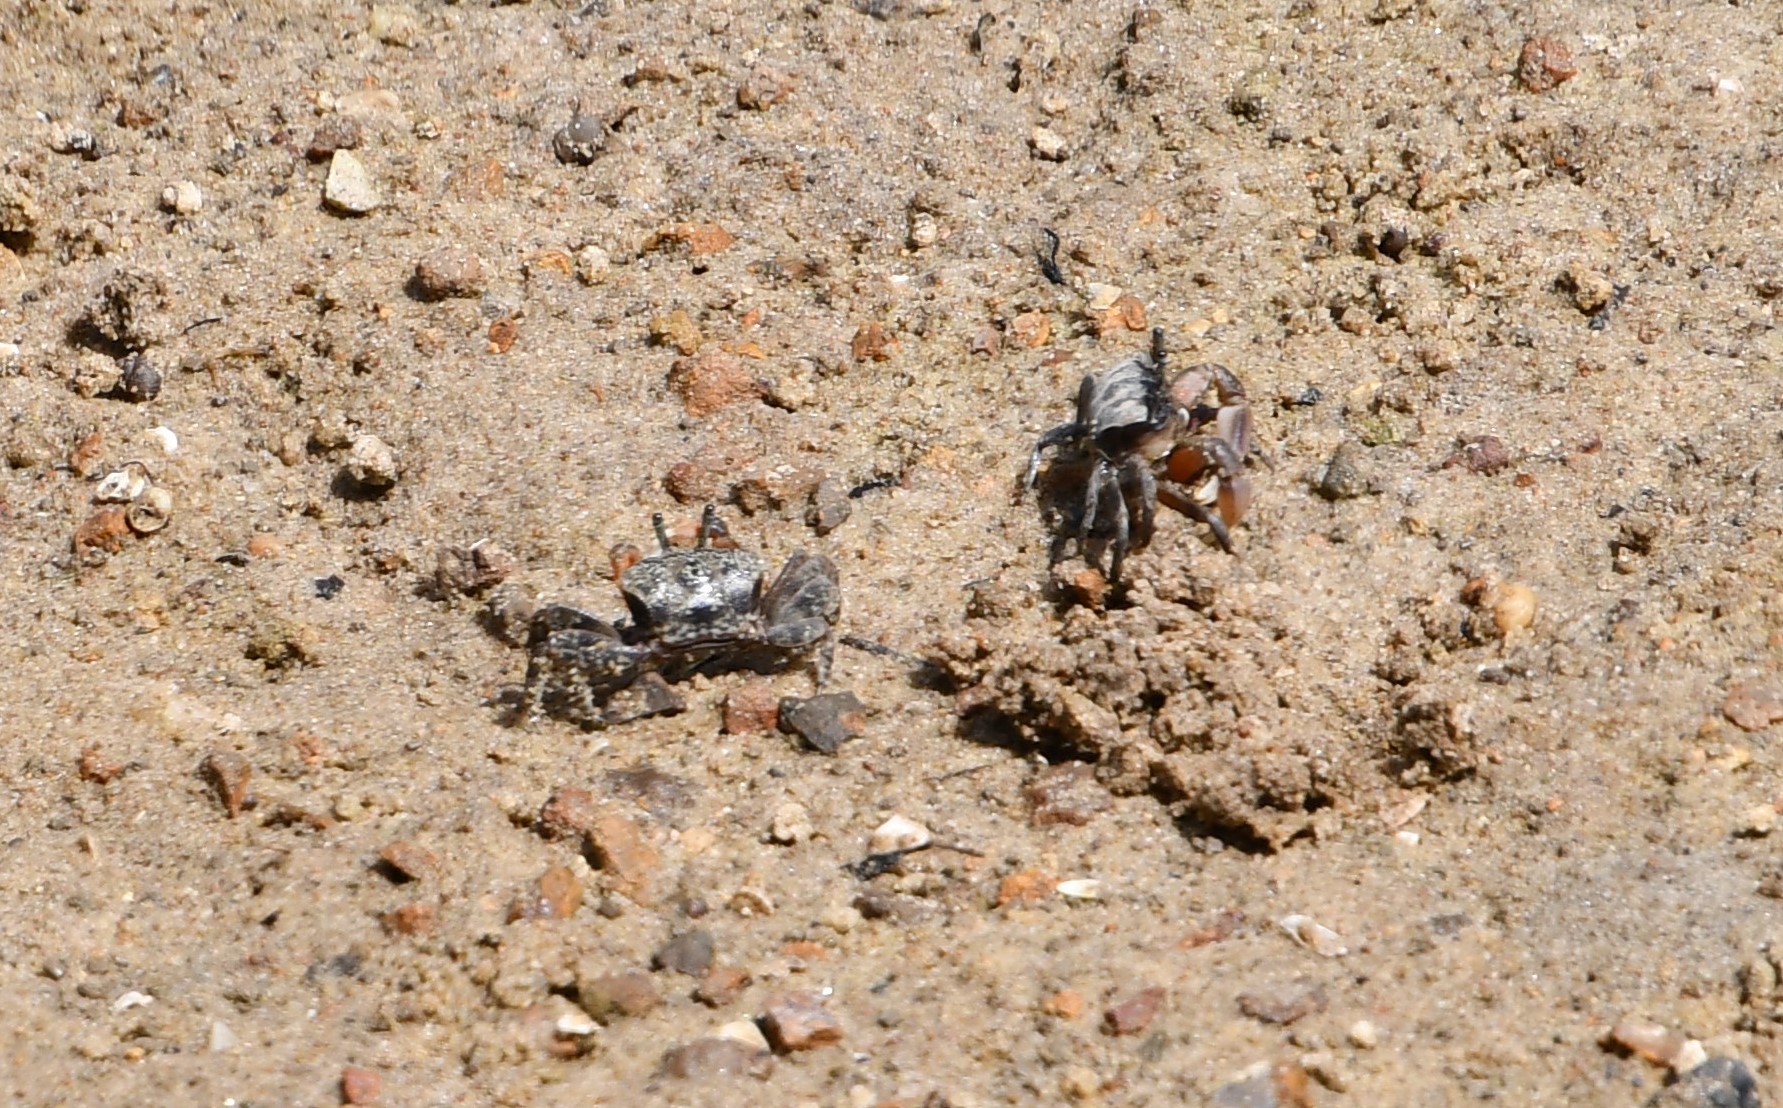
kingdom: Animalia
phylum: Arthropoda
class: Malacostraca
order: Decapoda
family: Heloeciidae
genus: Heloecius
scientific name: Heloecius cordiformis
